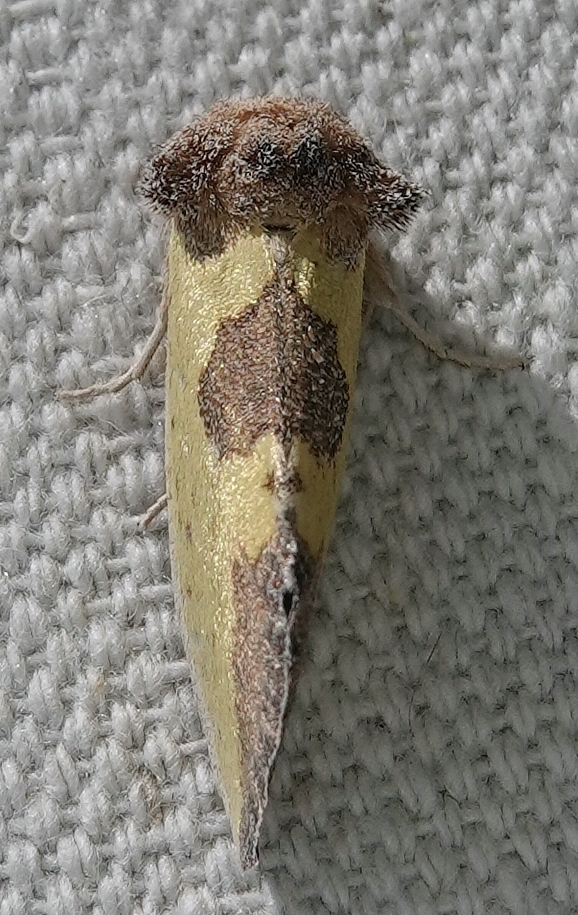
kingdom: Animalia
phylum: Arthropoda
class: Insecta
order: Lepidoptera
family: Noctuidae
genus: Stiria
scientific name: Stiria rugifrons
